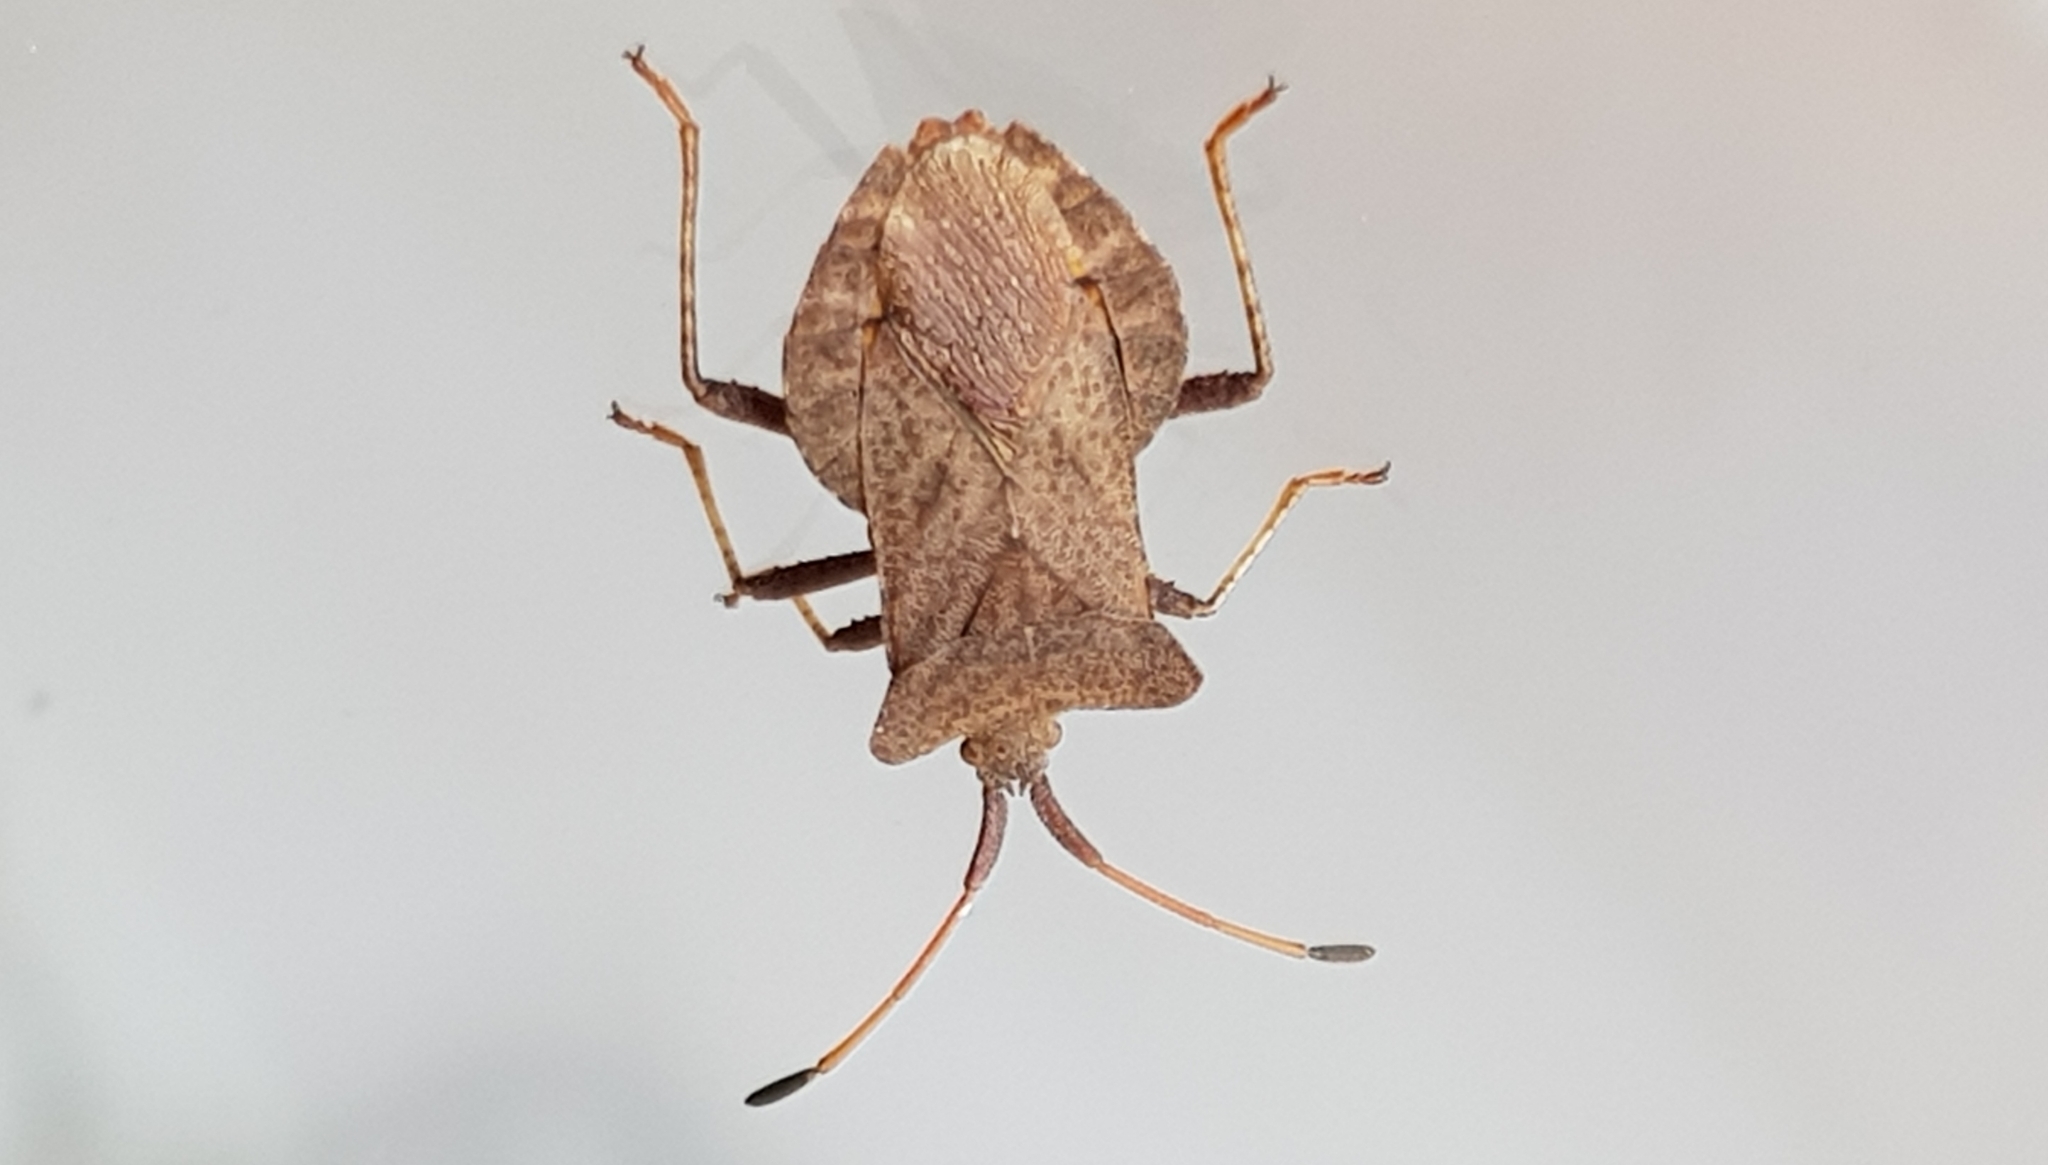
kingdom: Animalia
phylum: Arthropoda
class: Insecta
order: Hemiptera
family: Coreidae
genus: Coreus
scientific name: Coreus marginatus
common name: Dock bug
